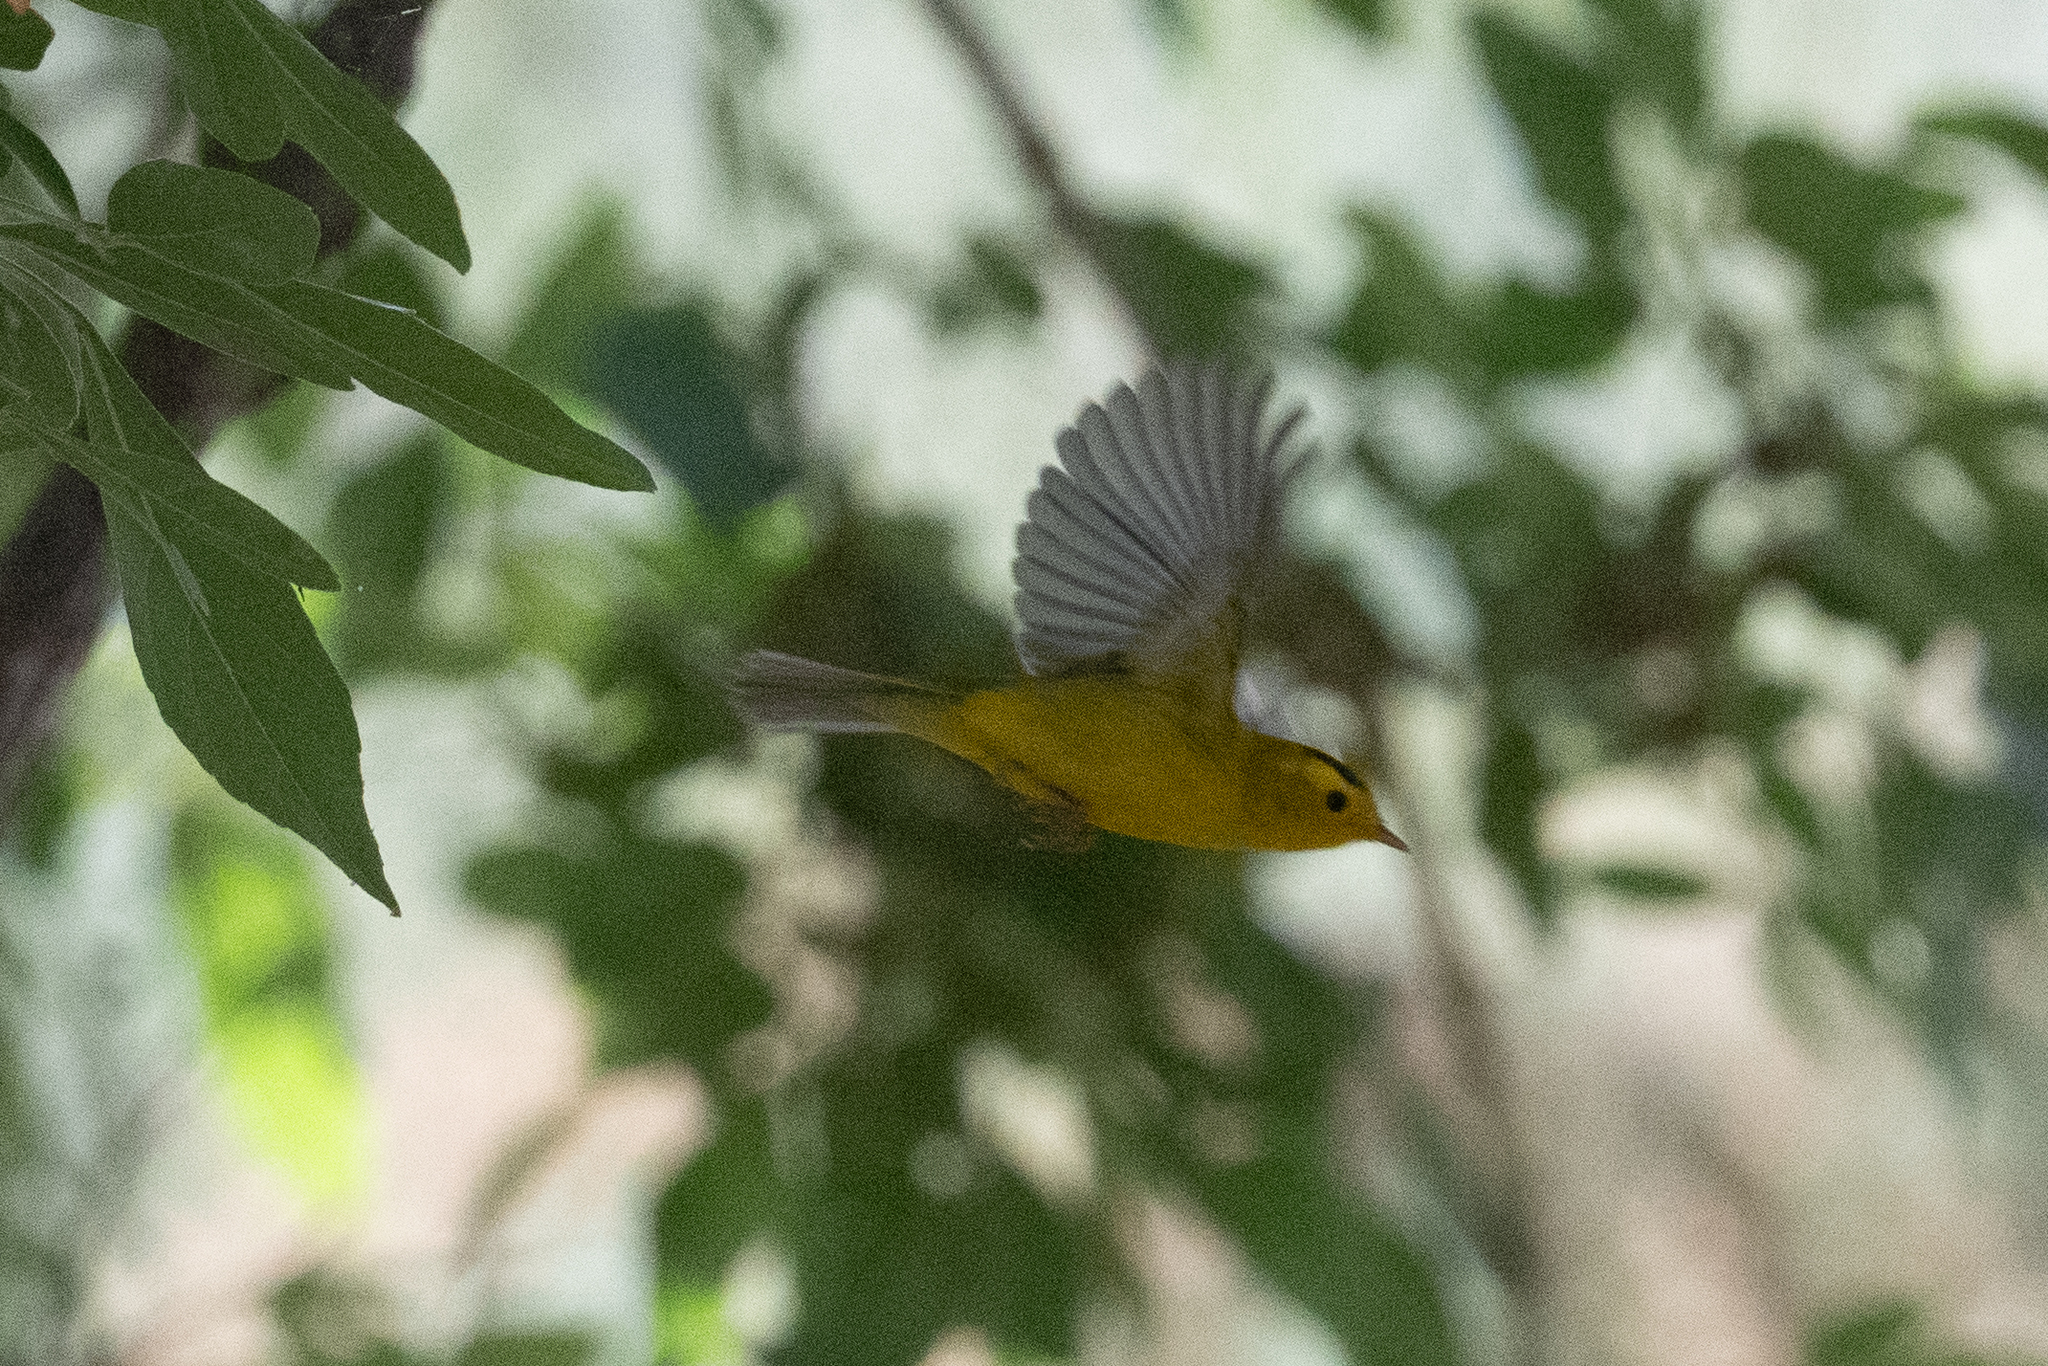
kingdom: Animalia
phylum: Chordata
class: Aves
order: Passeriformes
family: Parulidae
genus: Cardellina
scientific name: Cardellina pusilla
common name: Wilson's warbler
